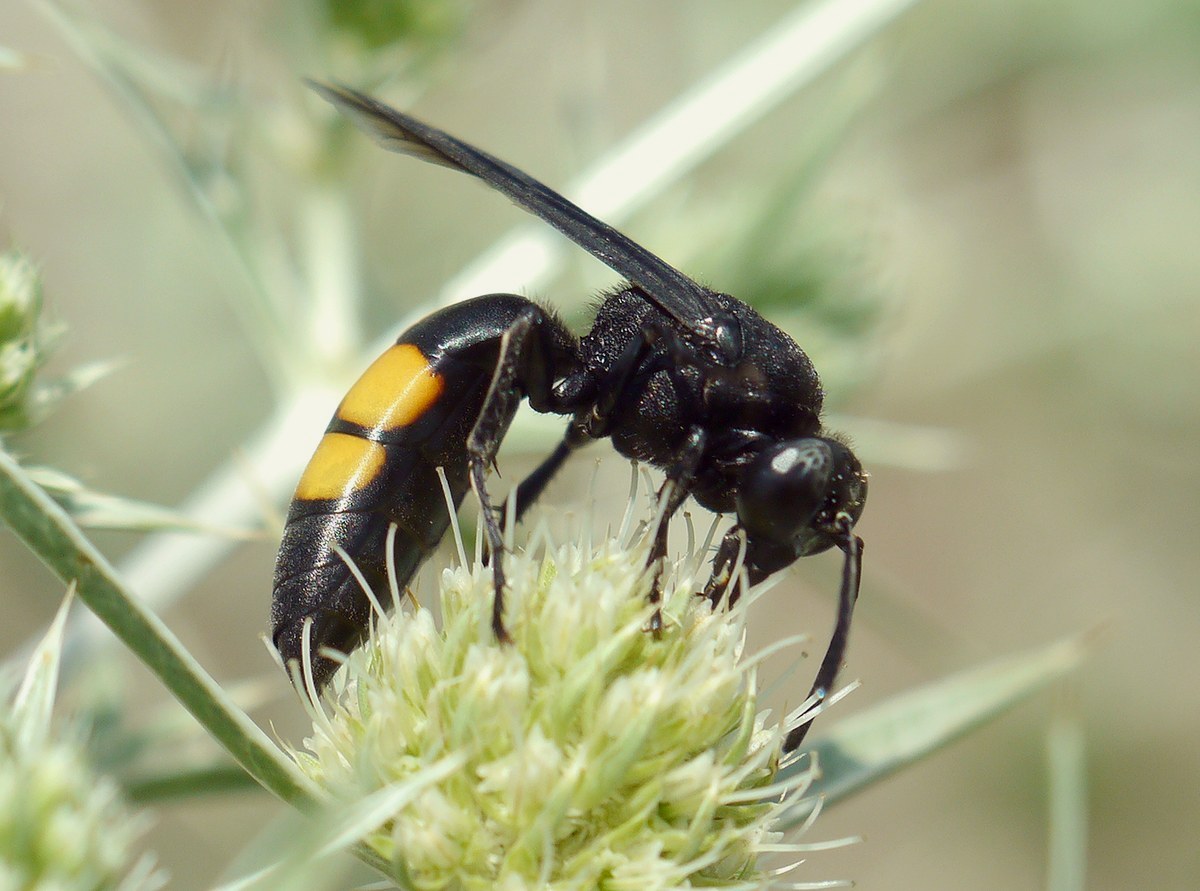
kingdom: Animalia
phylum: Arthropoda
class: Insecta
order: Hymenoptera
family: Crabronidae
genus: Stizoides
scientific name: Stizoides tridentatus
